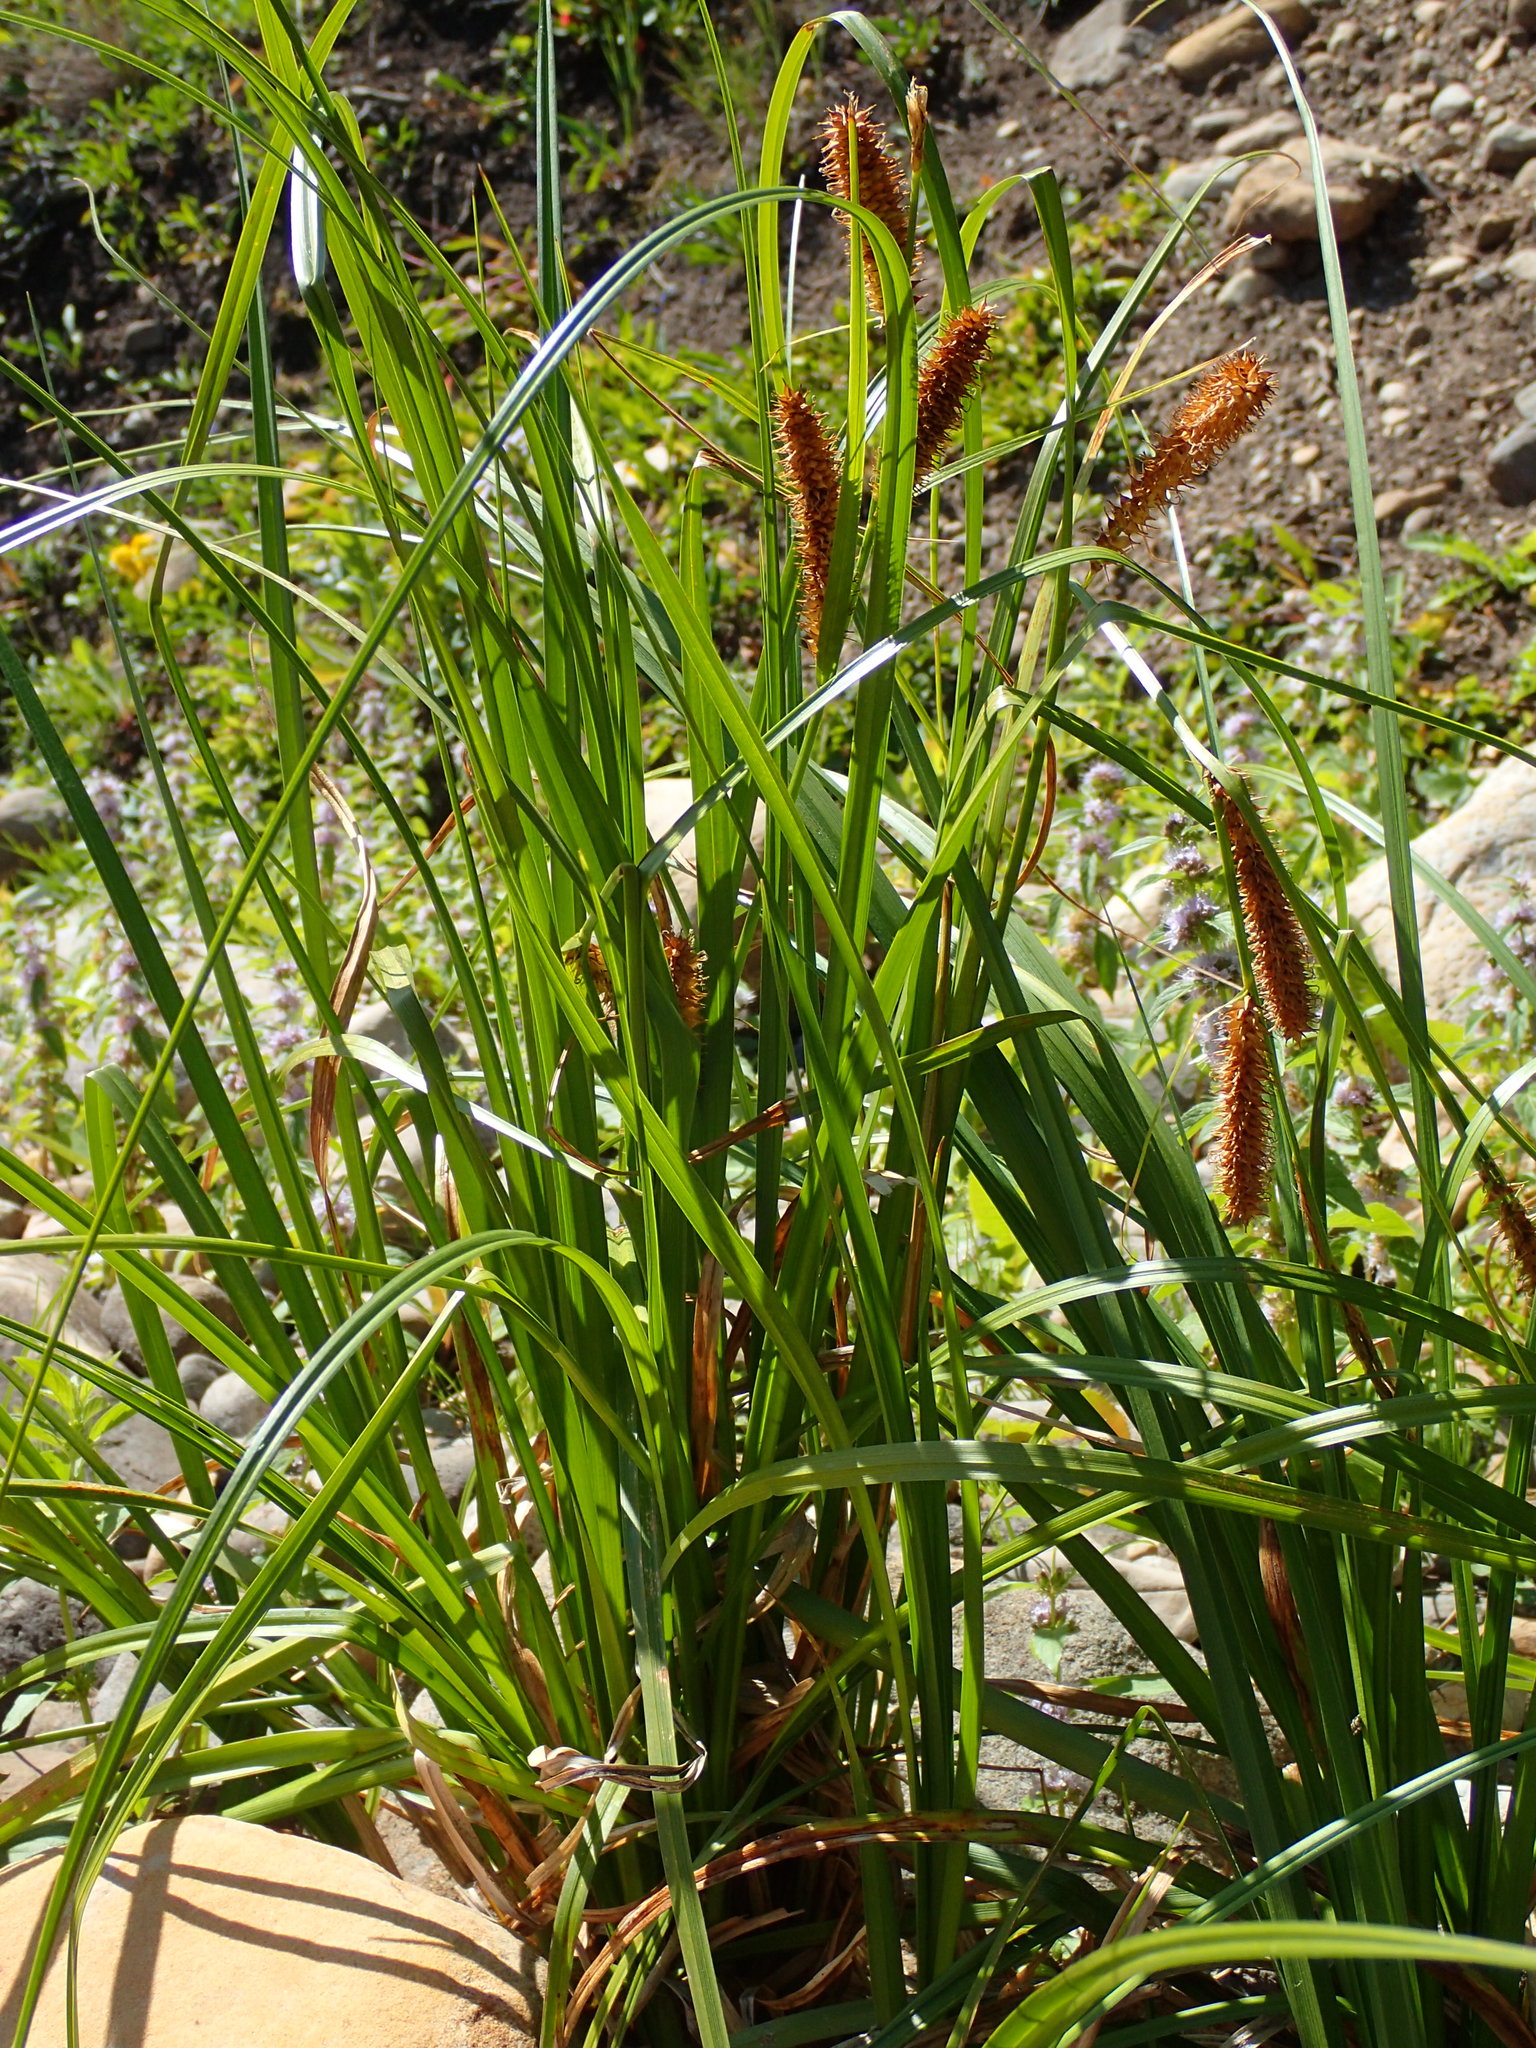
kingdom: Plantae
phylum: Tracheophyta
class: Liliopsida
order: Poales
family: Cyperaceae
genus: Carex
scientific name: Carex utriculata
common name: Beaked sedge
